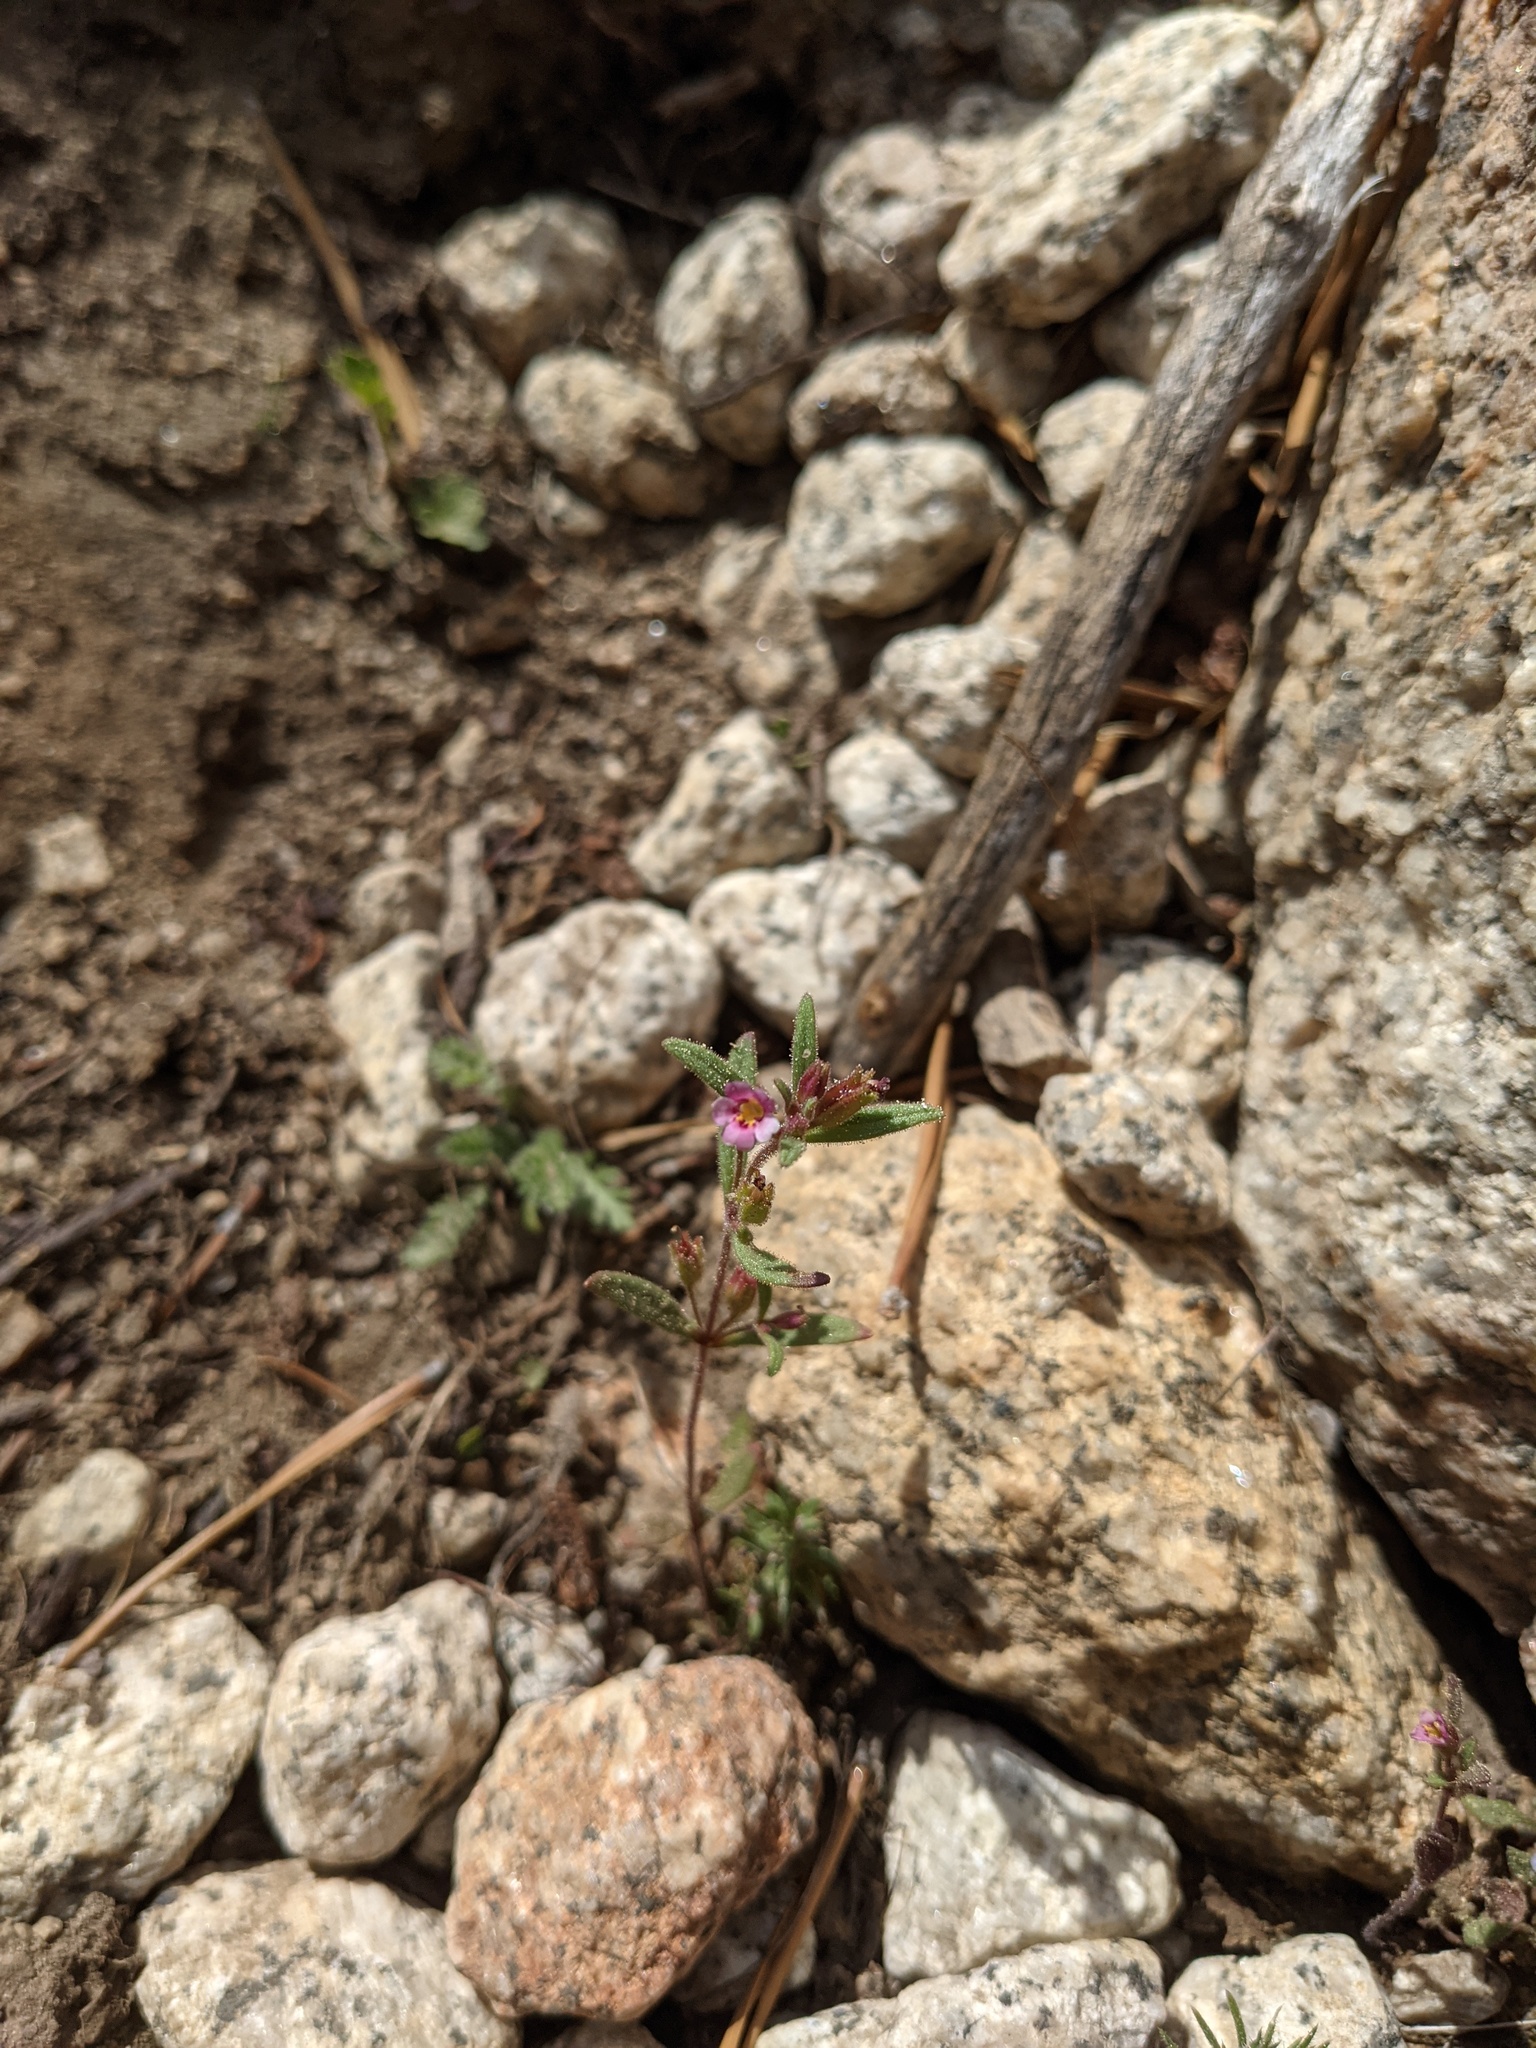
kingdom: Plantae
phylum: Tracheophyta
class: Magnoliopsida
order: Lamiales
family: Phrymaceae
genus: Erythranthe
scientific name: Erythranthe breweri
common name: Brewer's monkeyflower
